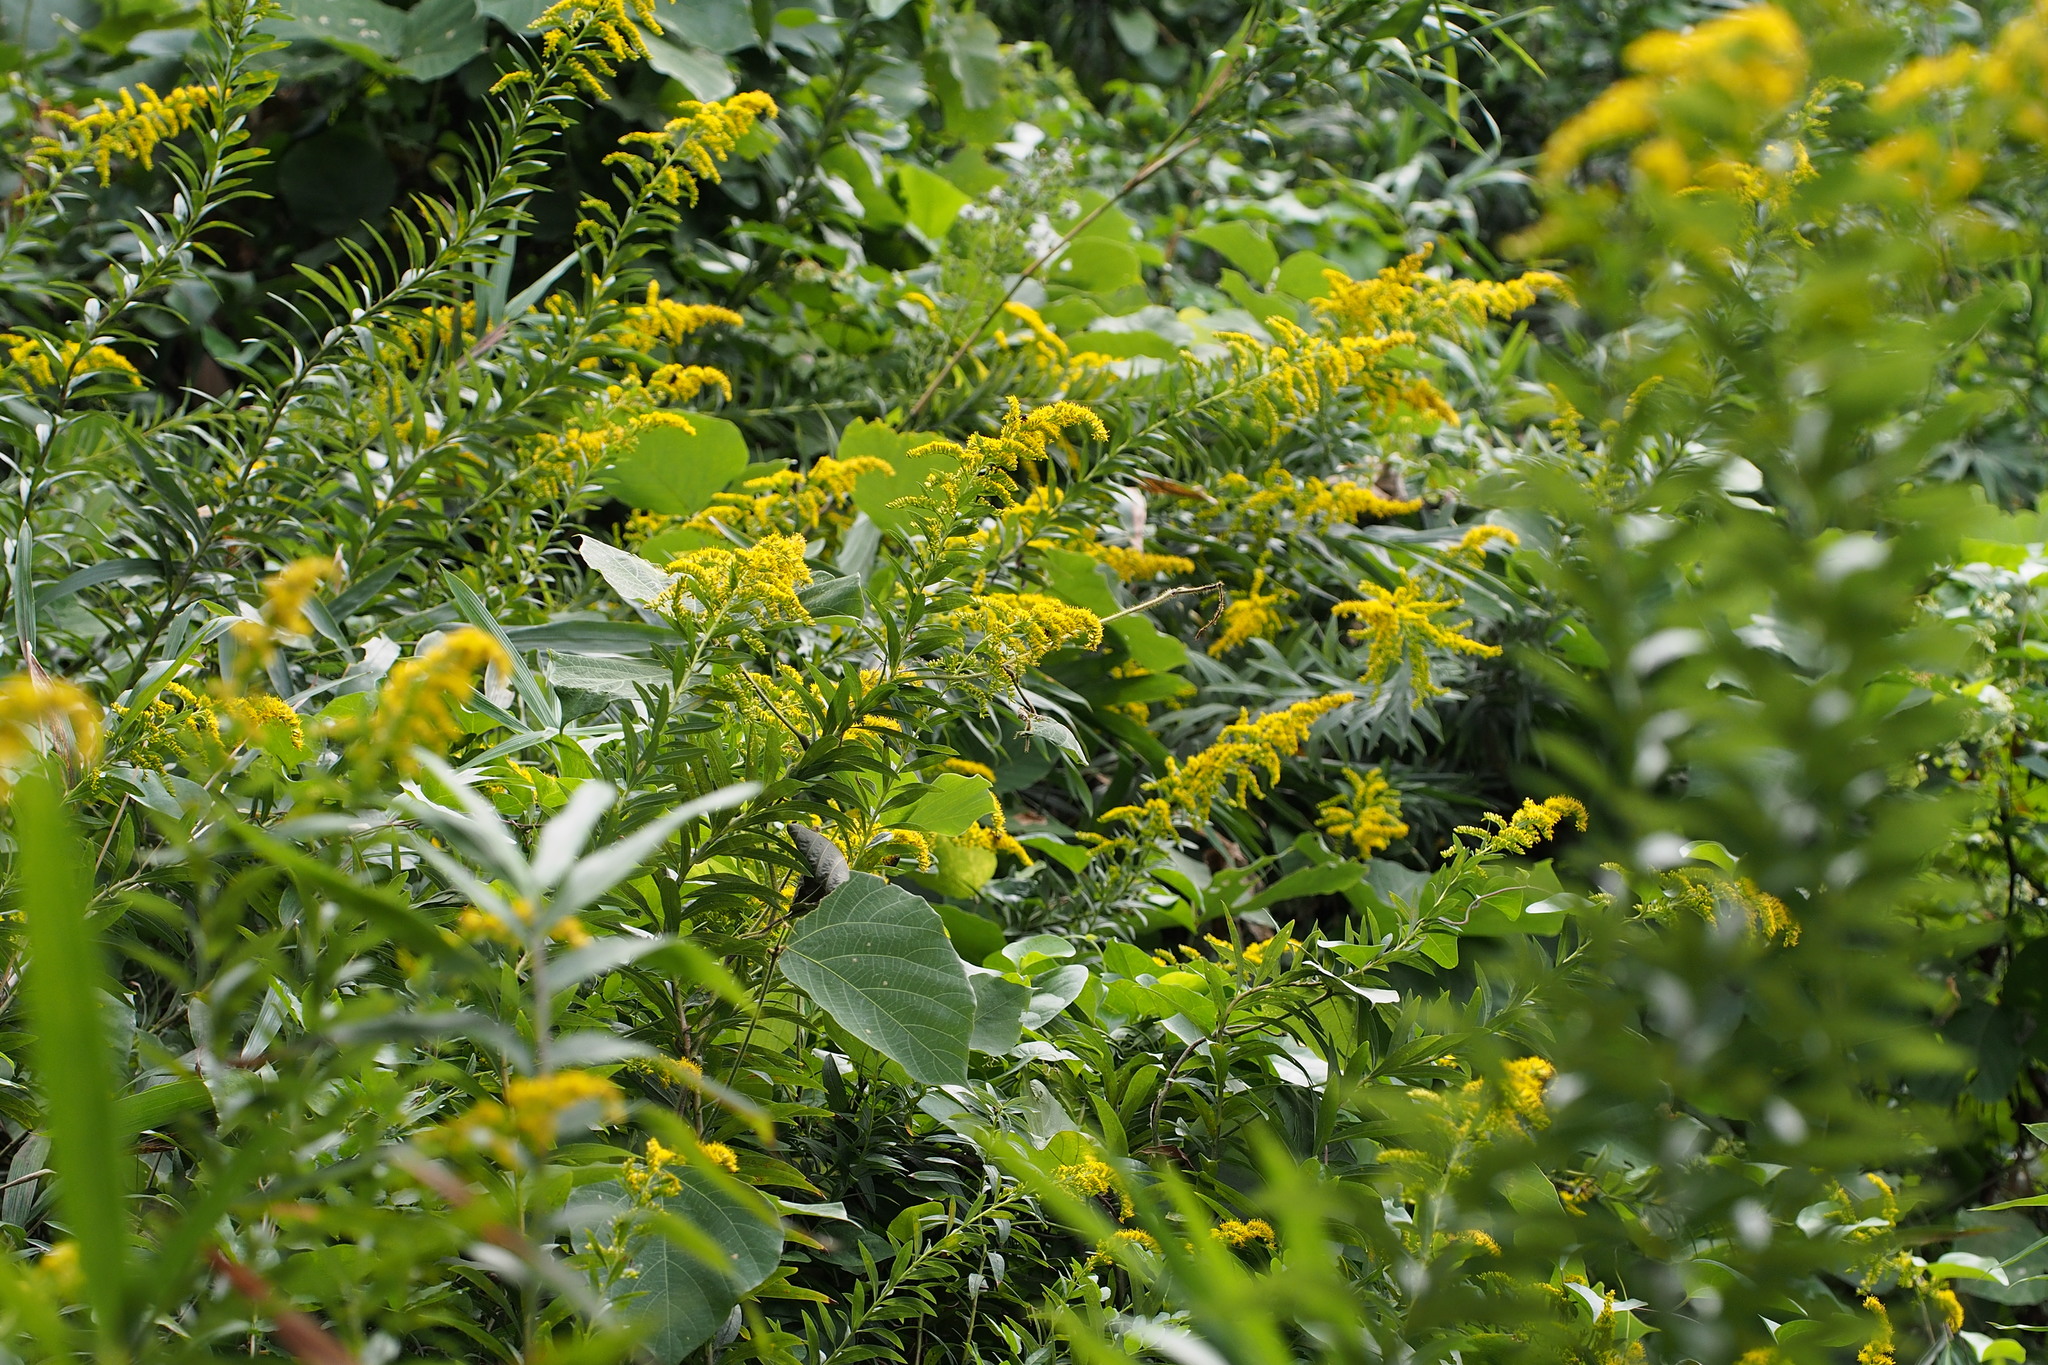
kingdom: Plantae
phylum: Tracheophyta
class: Magnoliopsida
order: Asterales
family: Asteraceae
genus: Solidago
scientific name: Solidago altissima
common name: Late goldenrod
